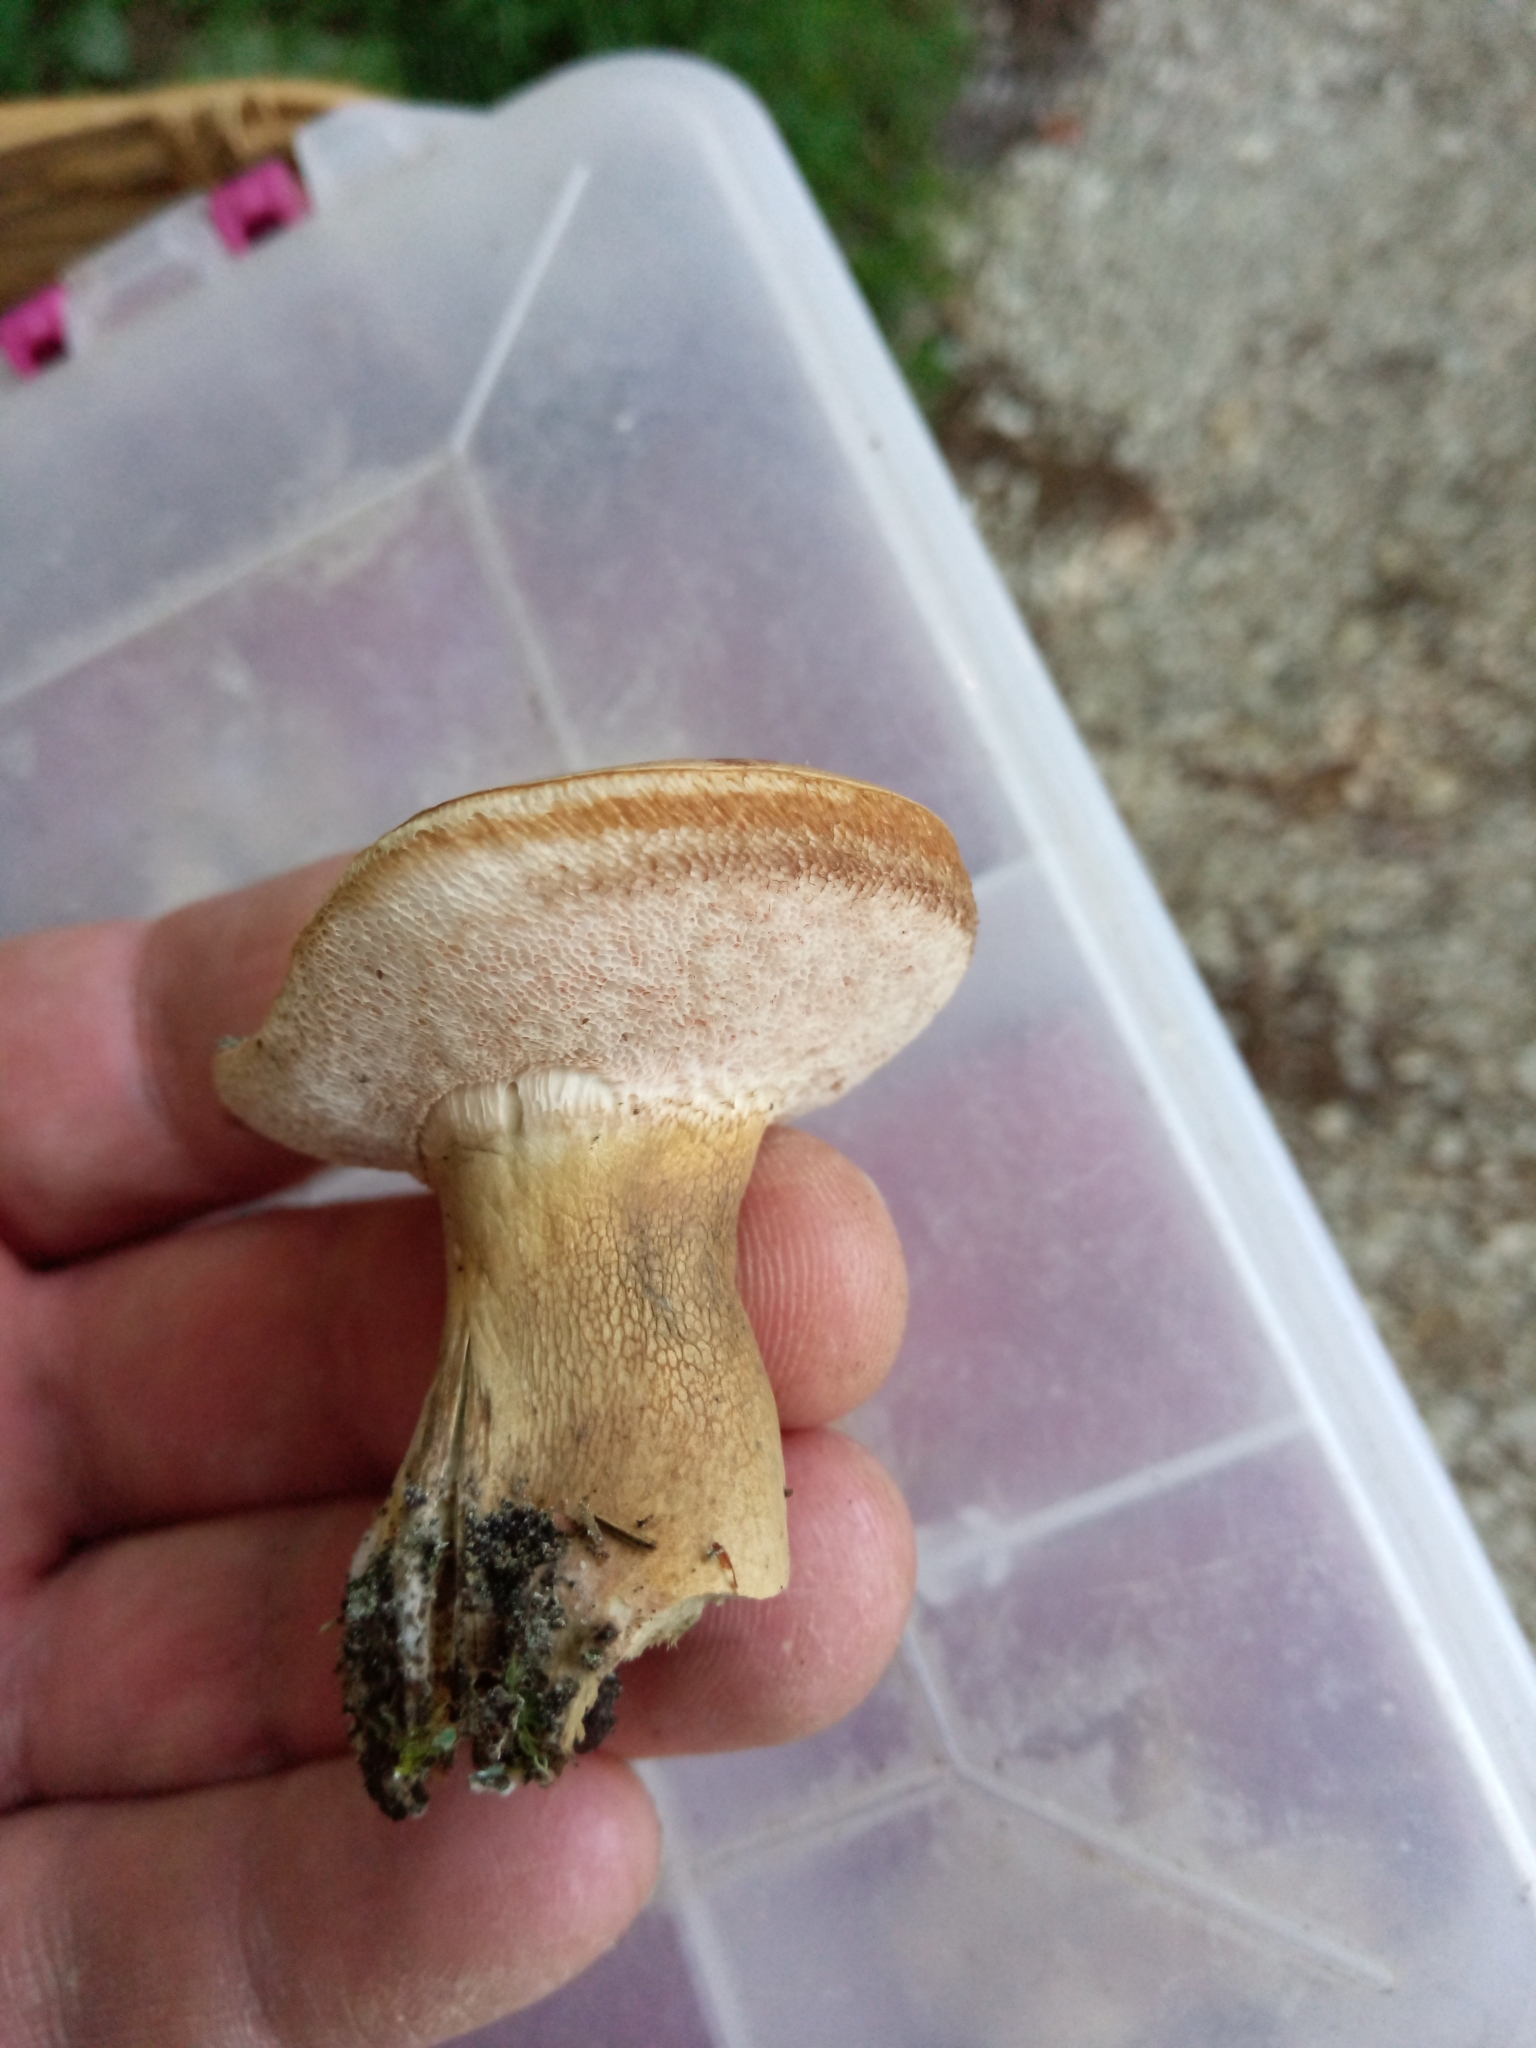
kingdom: Fungi
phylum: Basidiomycota
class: Agaricomycetes
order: Boletales
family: Boletaceae
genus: Tylopilus
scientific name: Tylopilus felleus
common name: Bitter bolete
